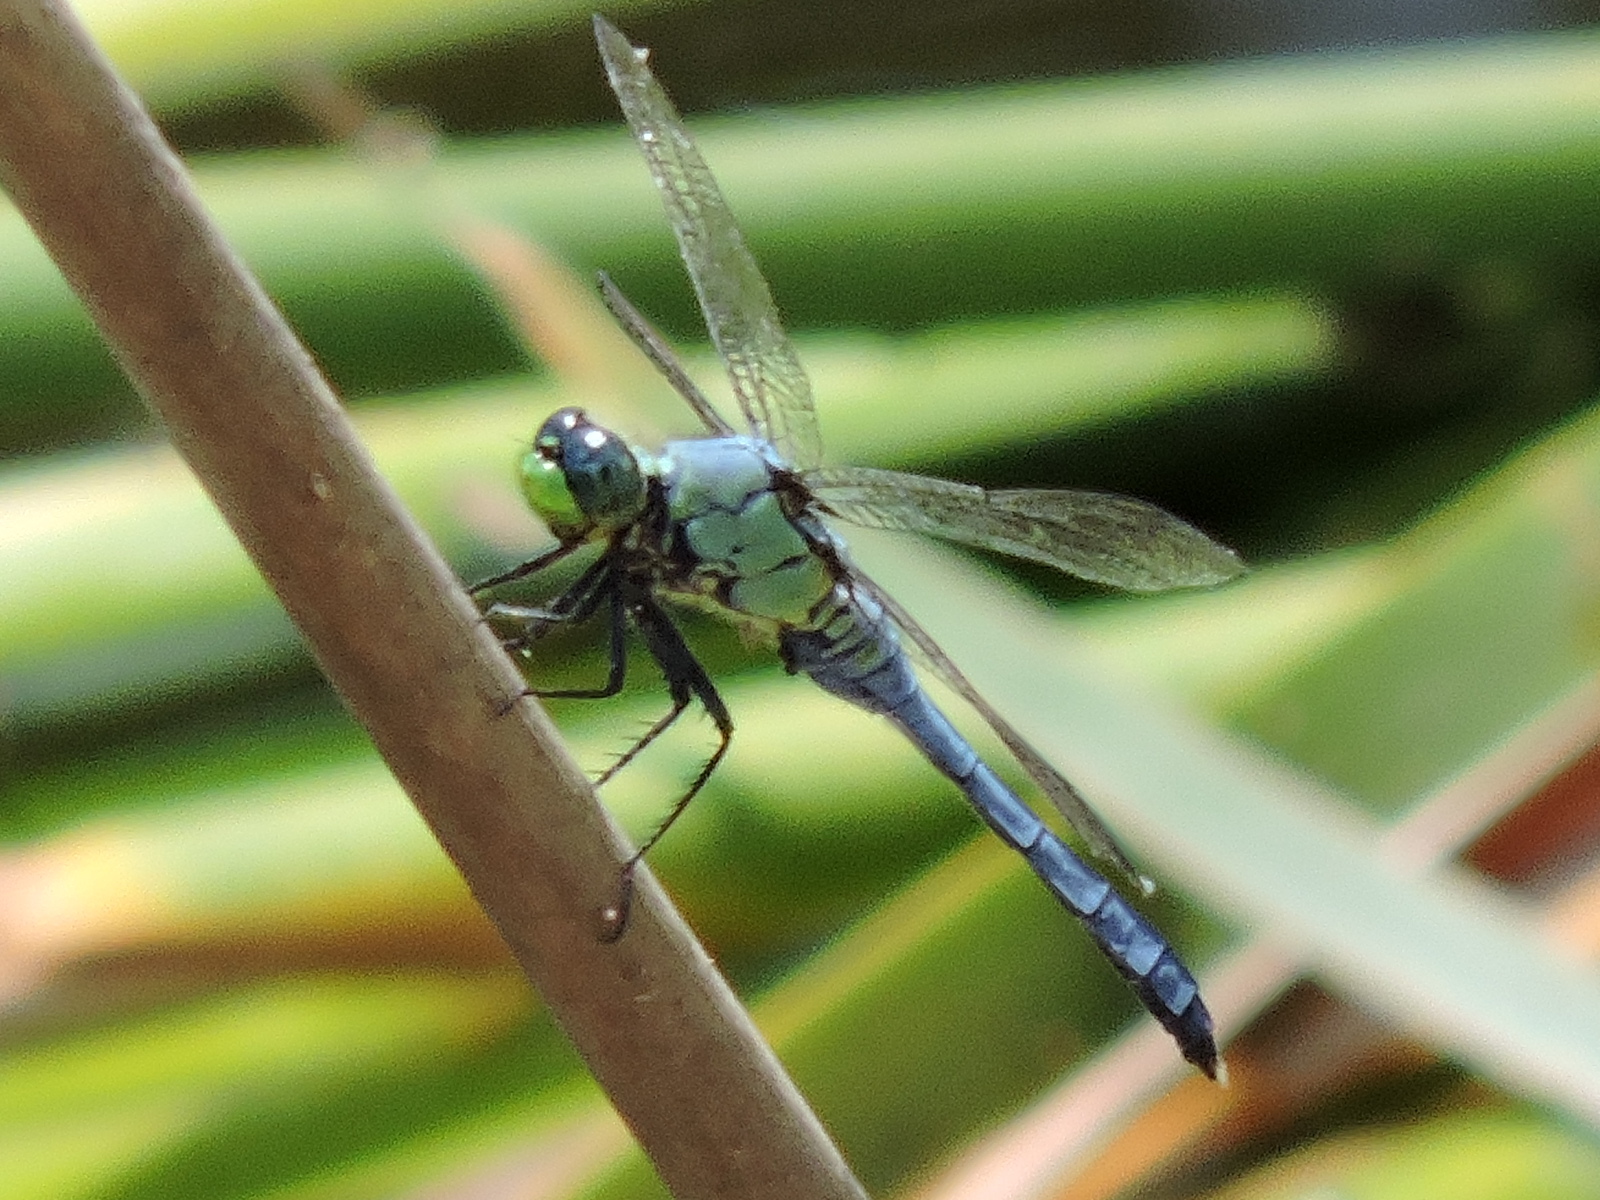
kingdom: Animalia
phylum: Arthropoda
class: Insecta
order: Odonata
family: Libellulidae
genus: Erythemis
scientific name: Erythemis simplicicollis
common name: Eastern pondhawk
